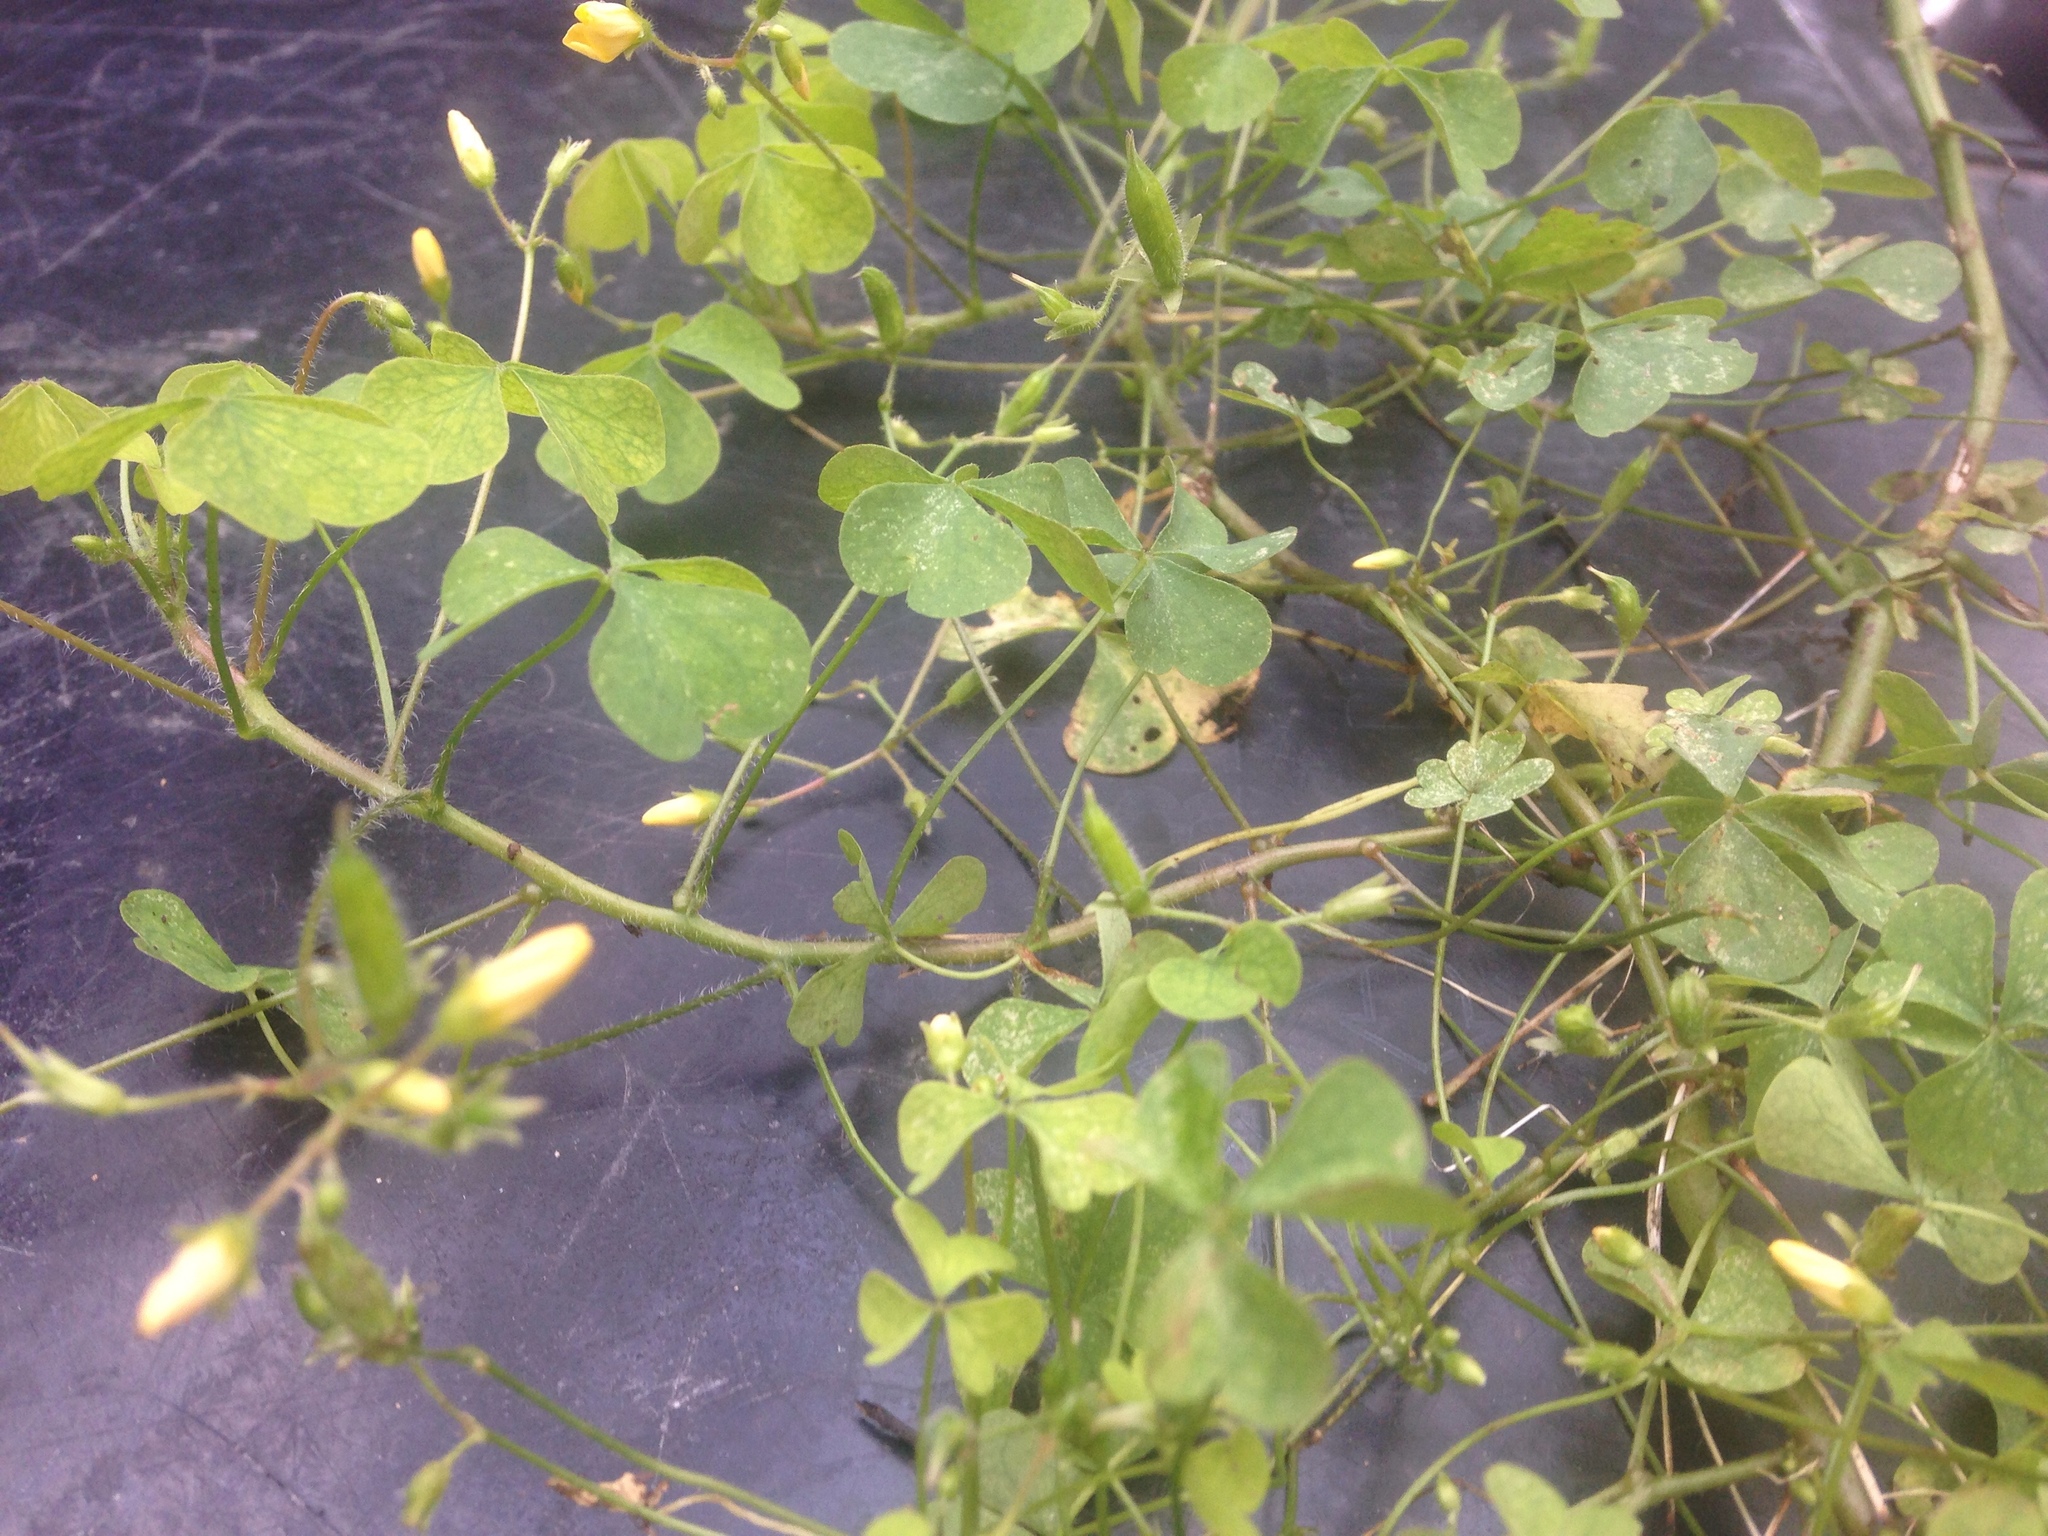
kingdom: Plantae
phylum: Tracheophyta
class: Magnoliopsida
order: Oxalidales
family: Oxalidaceae
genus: Oxalis
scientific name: Oxalis stricta
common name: Upright yellow-sorrel
